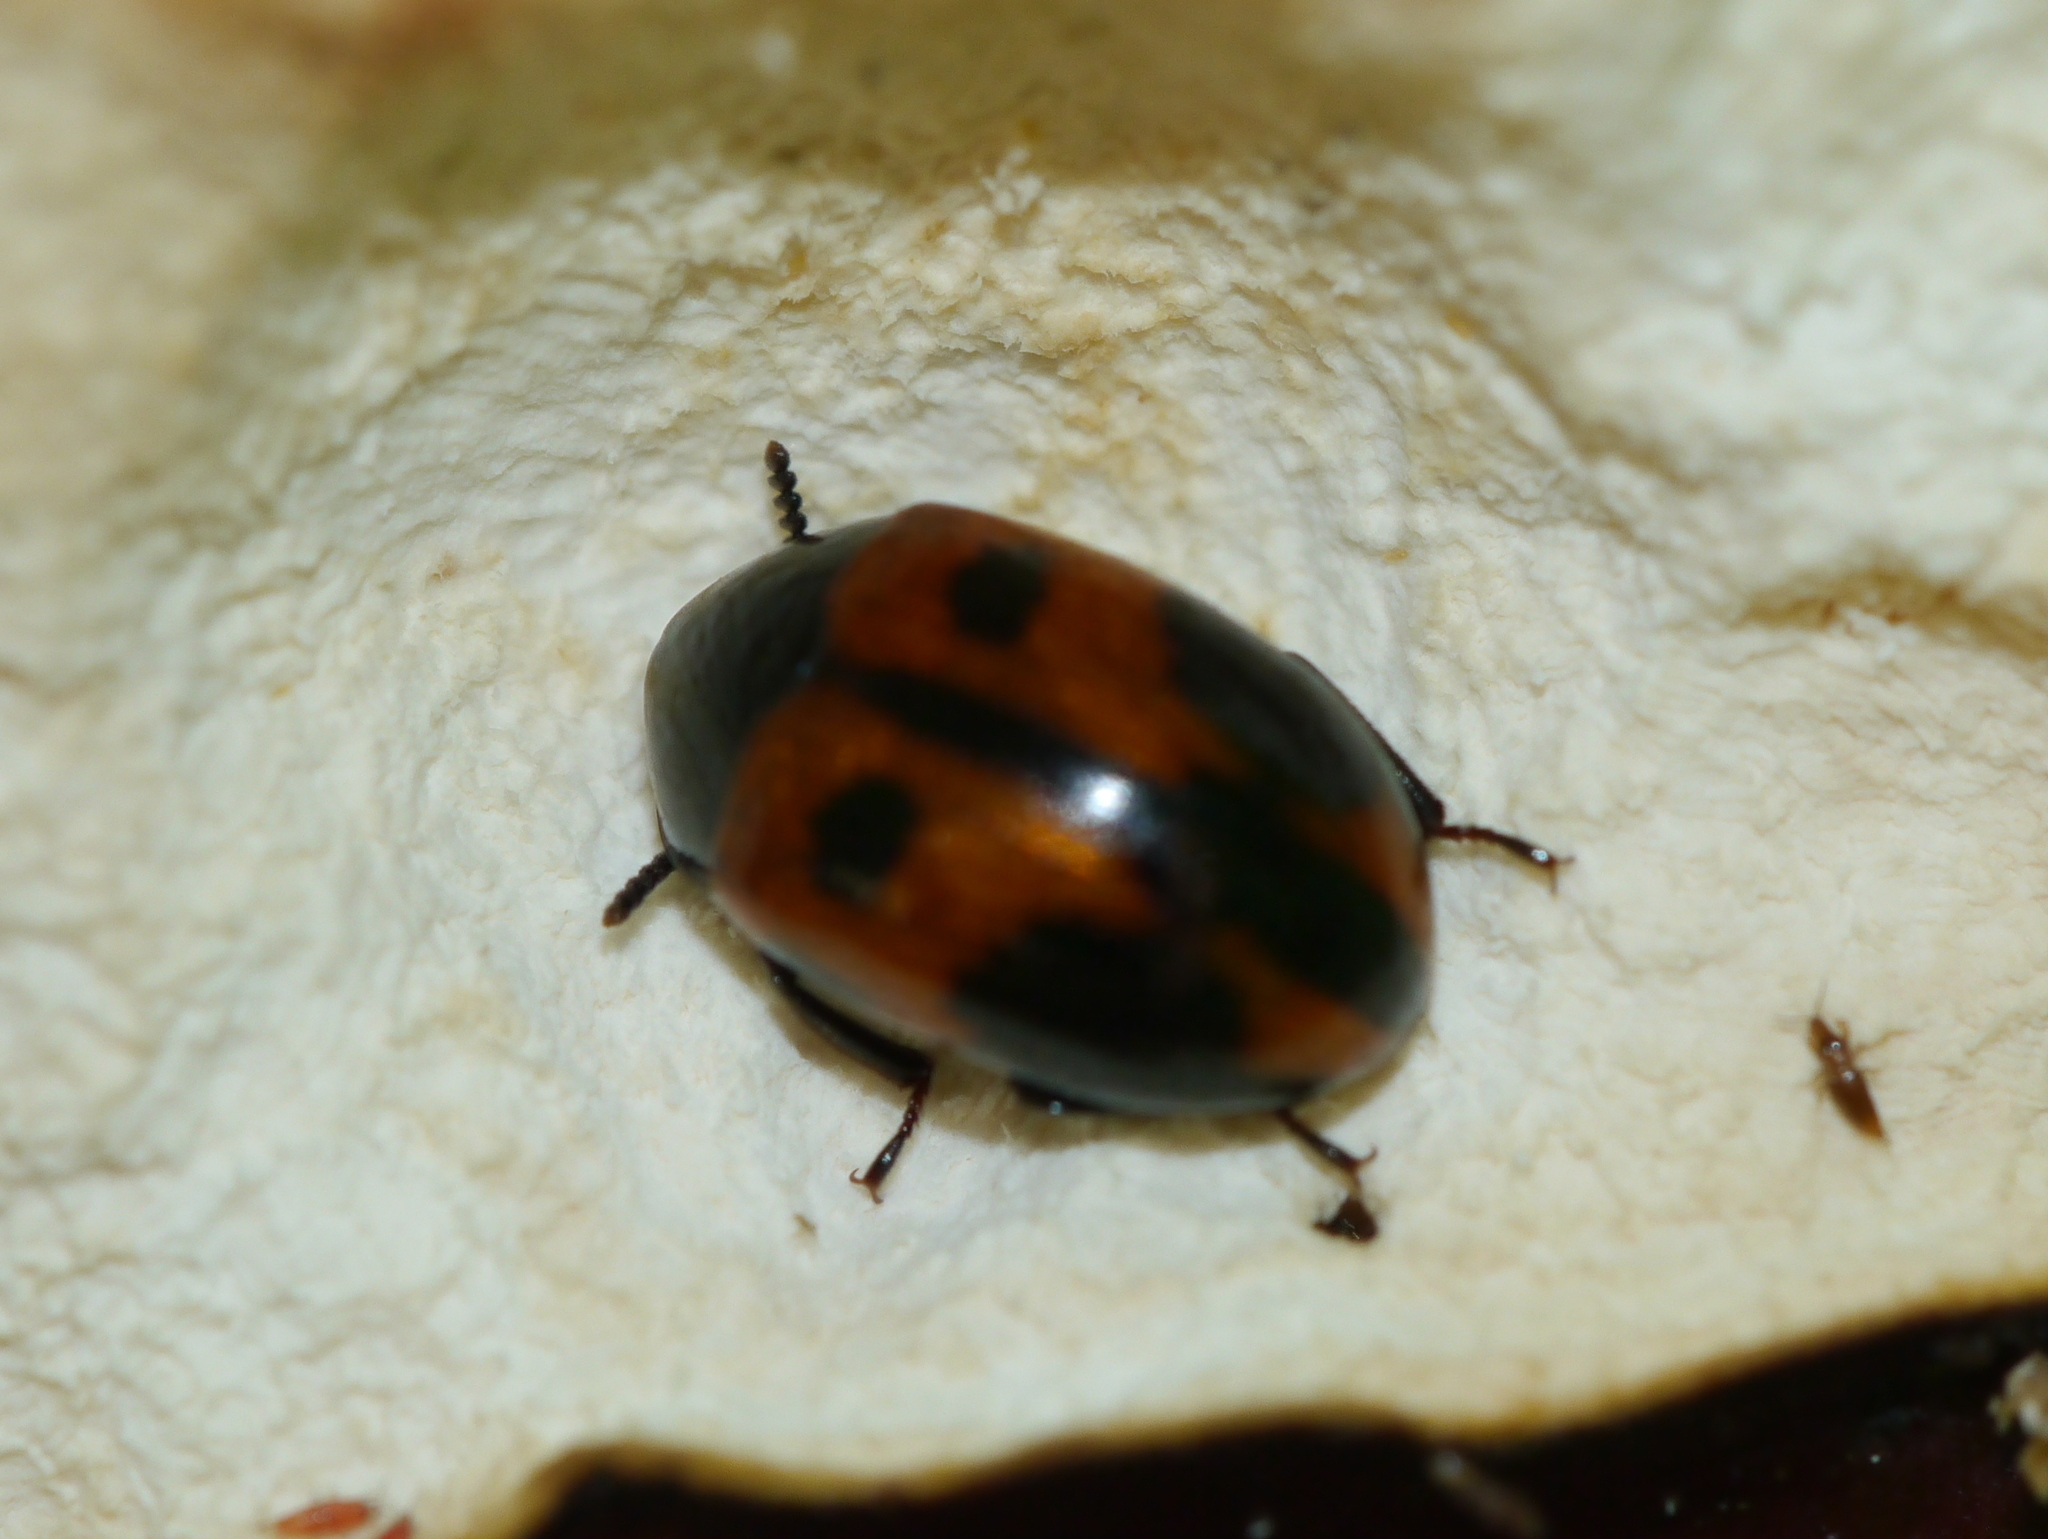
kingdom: Animalia
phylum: Arthropoda
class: Insecta
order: Coleoptera
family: Tenebrionidae
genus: Diaperis
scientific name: Diaperis maculata
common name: Darkling beetle
